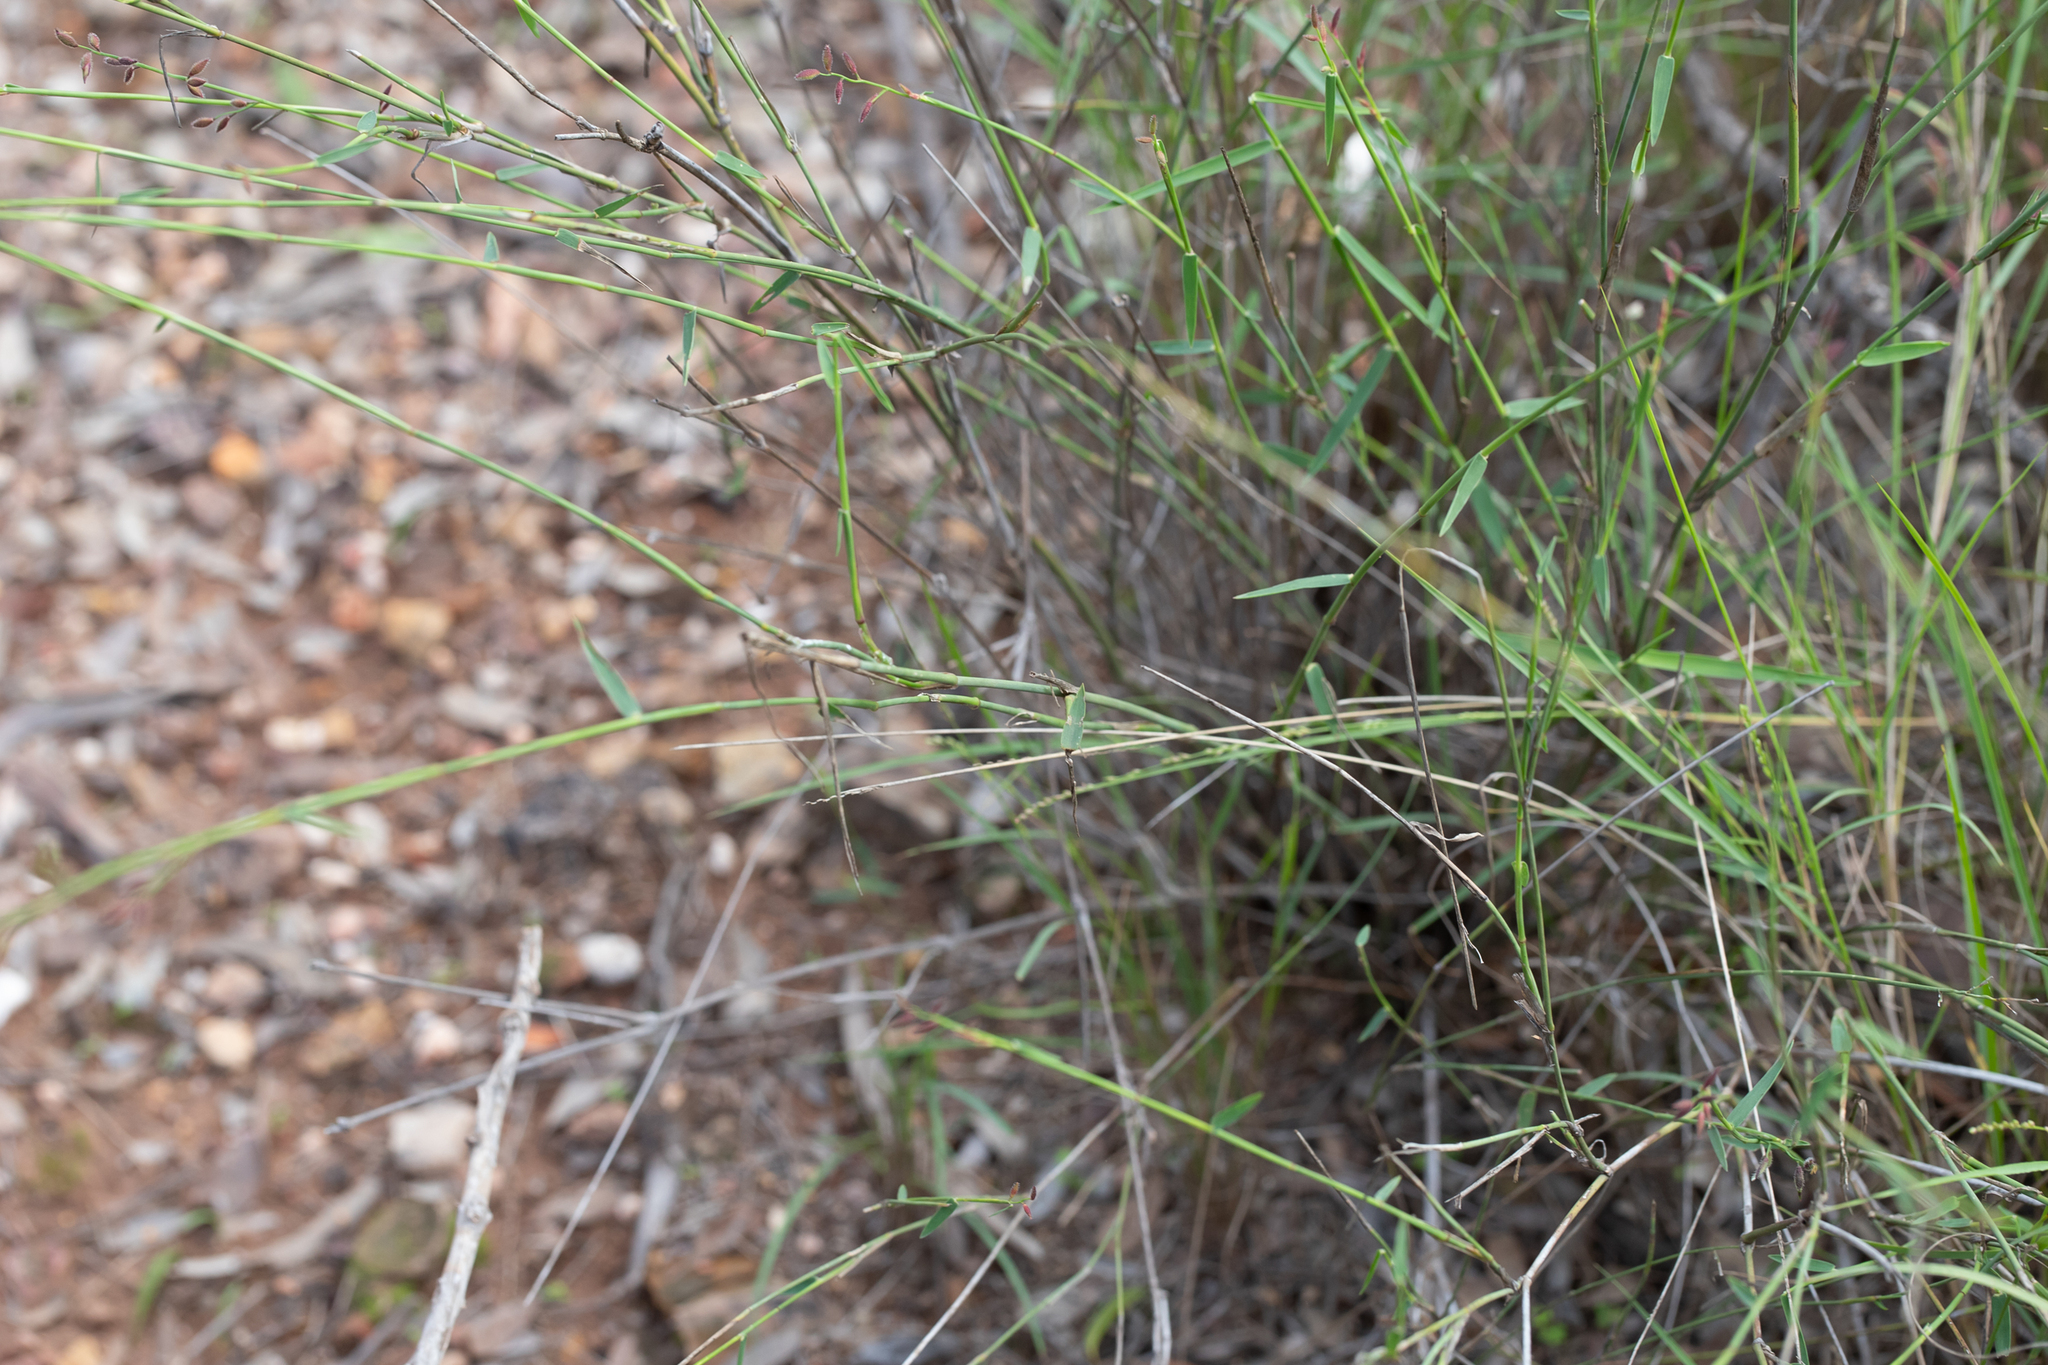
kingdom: Plantae
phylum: Tracheophyta
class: Liliopsida
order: Poales
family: Poaceae
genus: Ancistrachne
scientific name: Ancistrachne uncinulata
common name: Hooky grass
